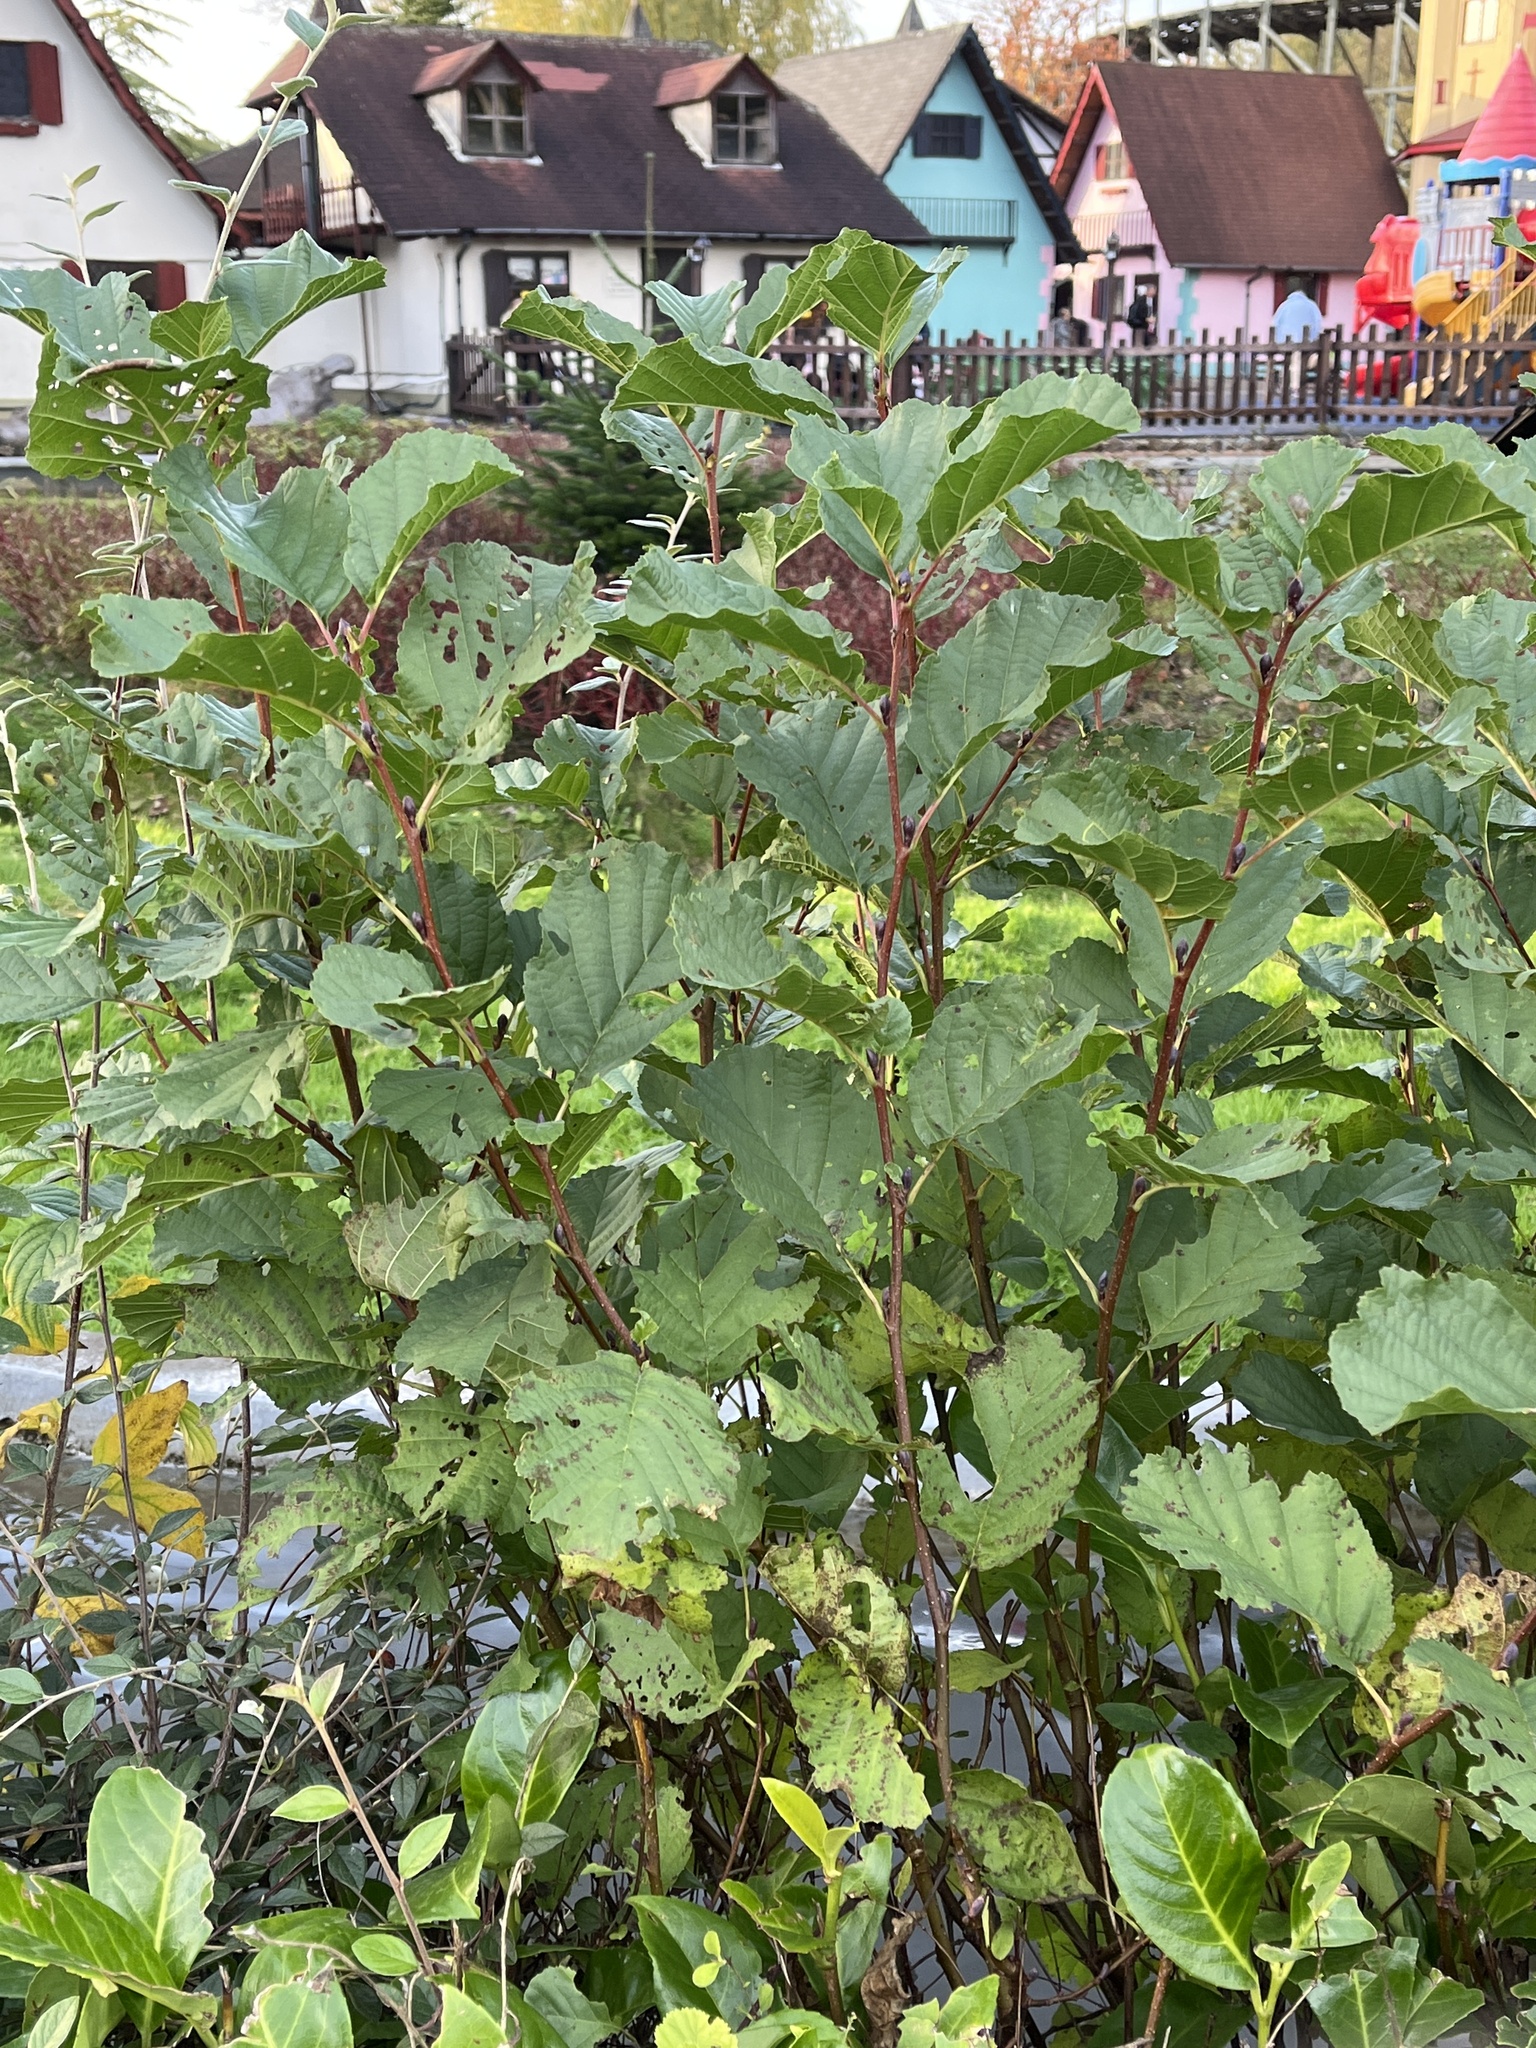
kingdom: Plantae
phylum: Tracheophyta
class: Magnoliopsida
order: Fagales
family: Betulaceae
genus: Alnus
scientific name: Alnus glutinosa
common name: Black alder
